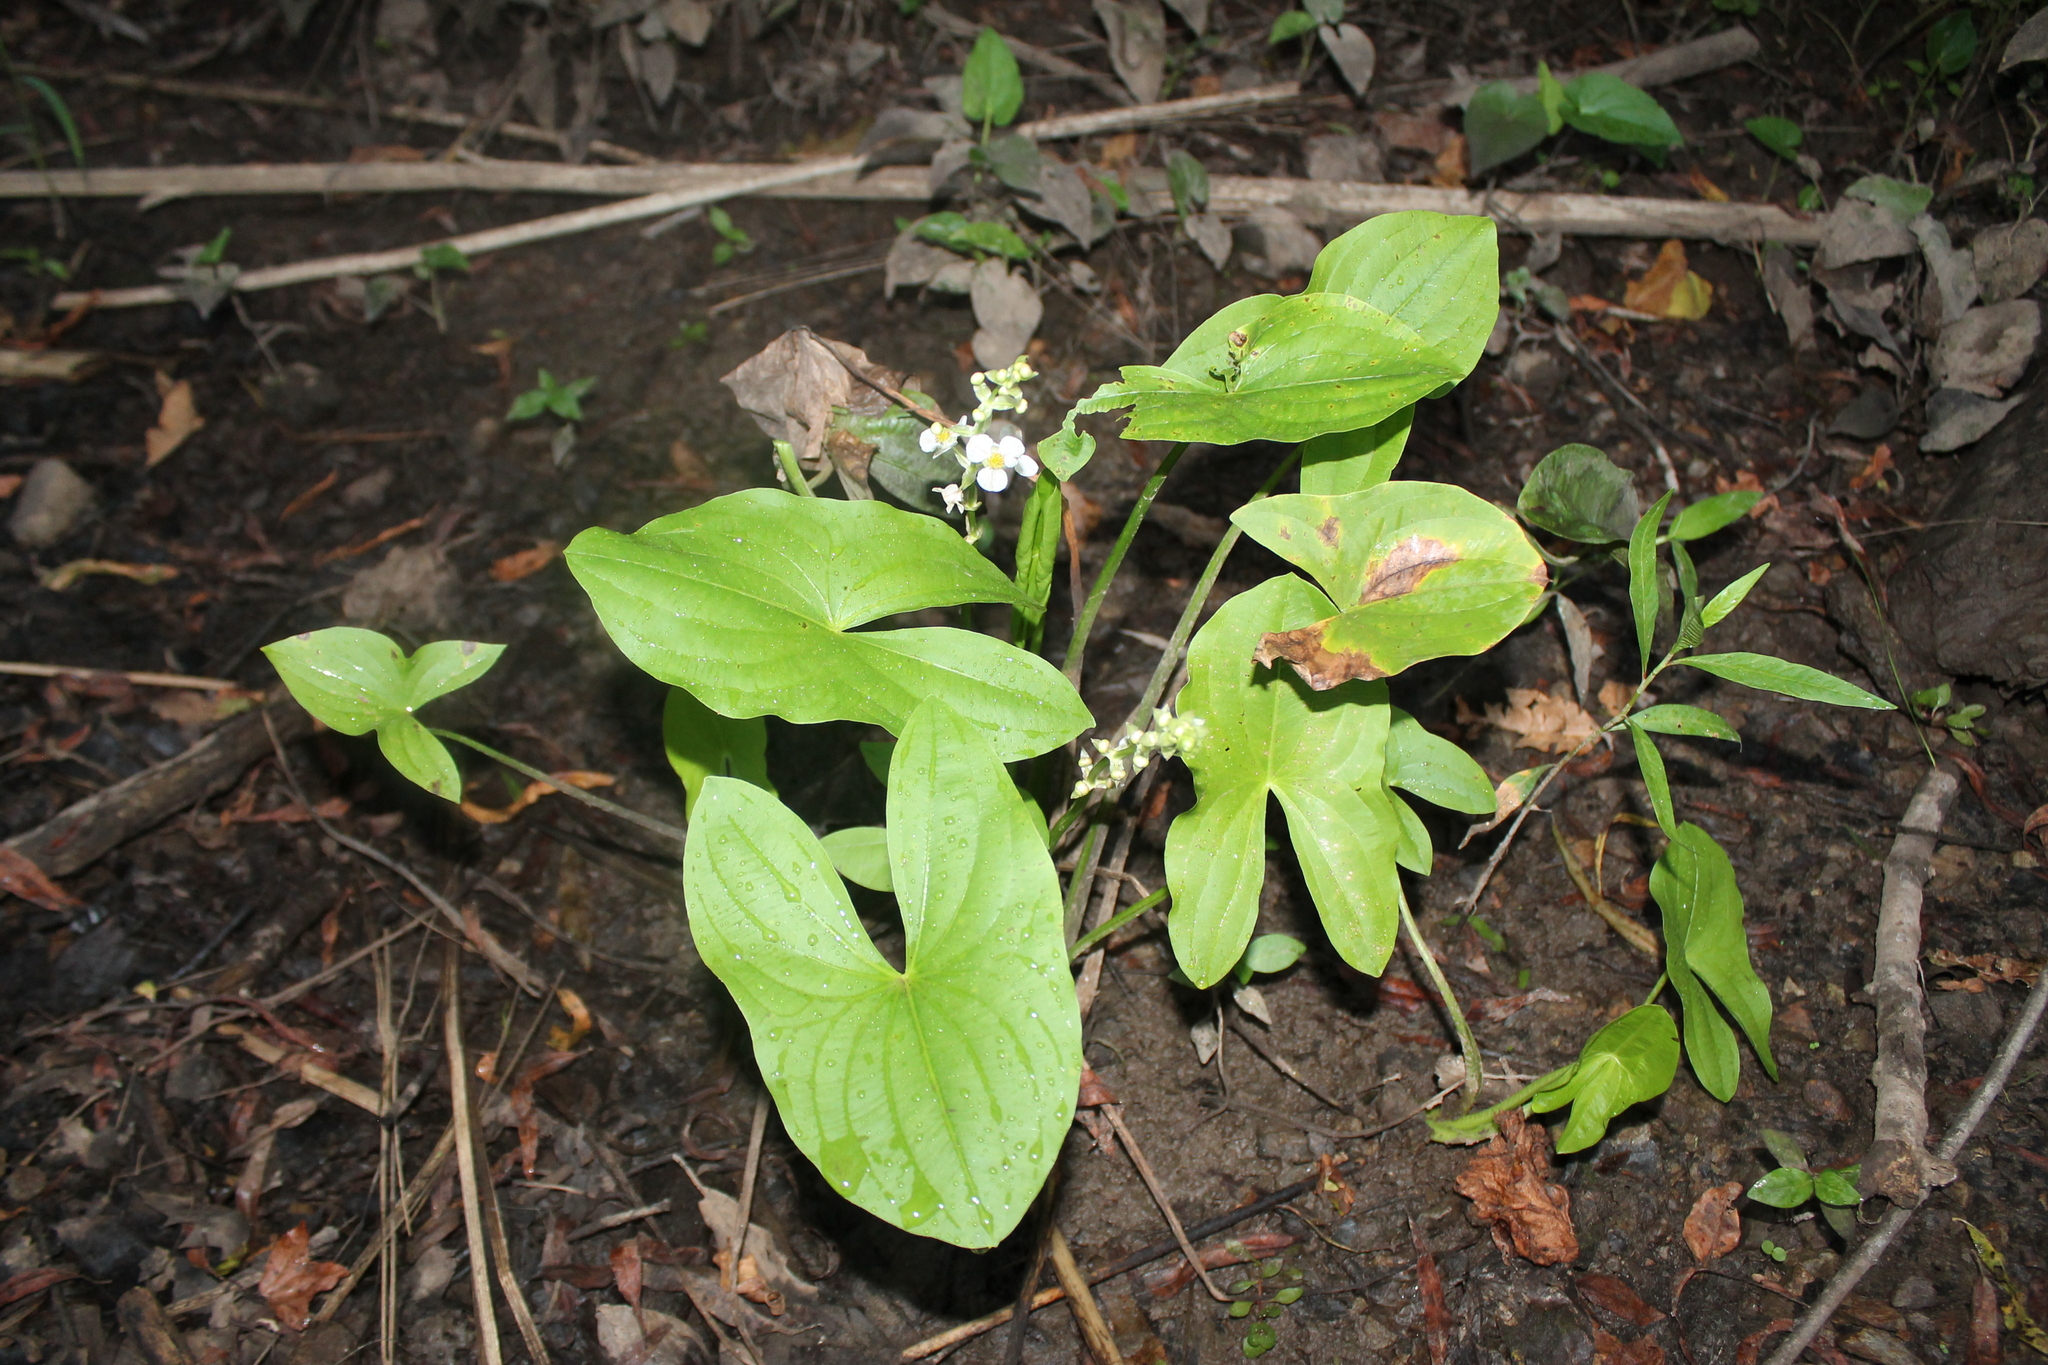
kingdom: Plantae
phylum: Tracheophyta
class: Liliopsida
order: Alismatales
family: Alismataceae
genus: Sagittaria
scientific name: Sagittaria australis
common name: Appalachian arrowhead
